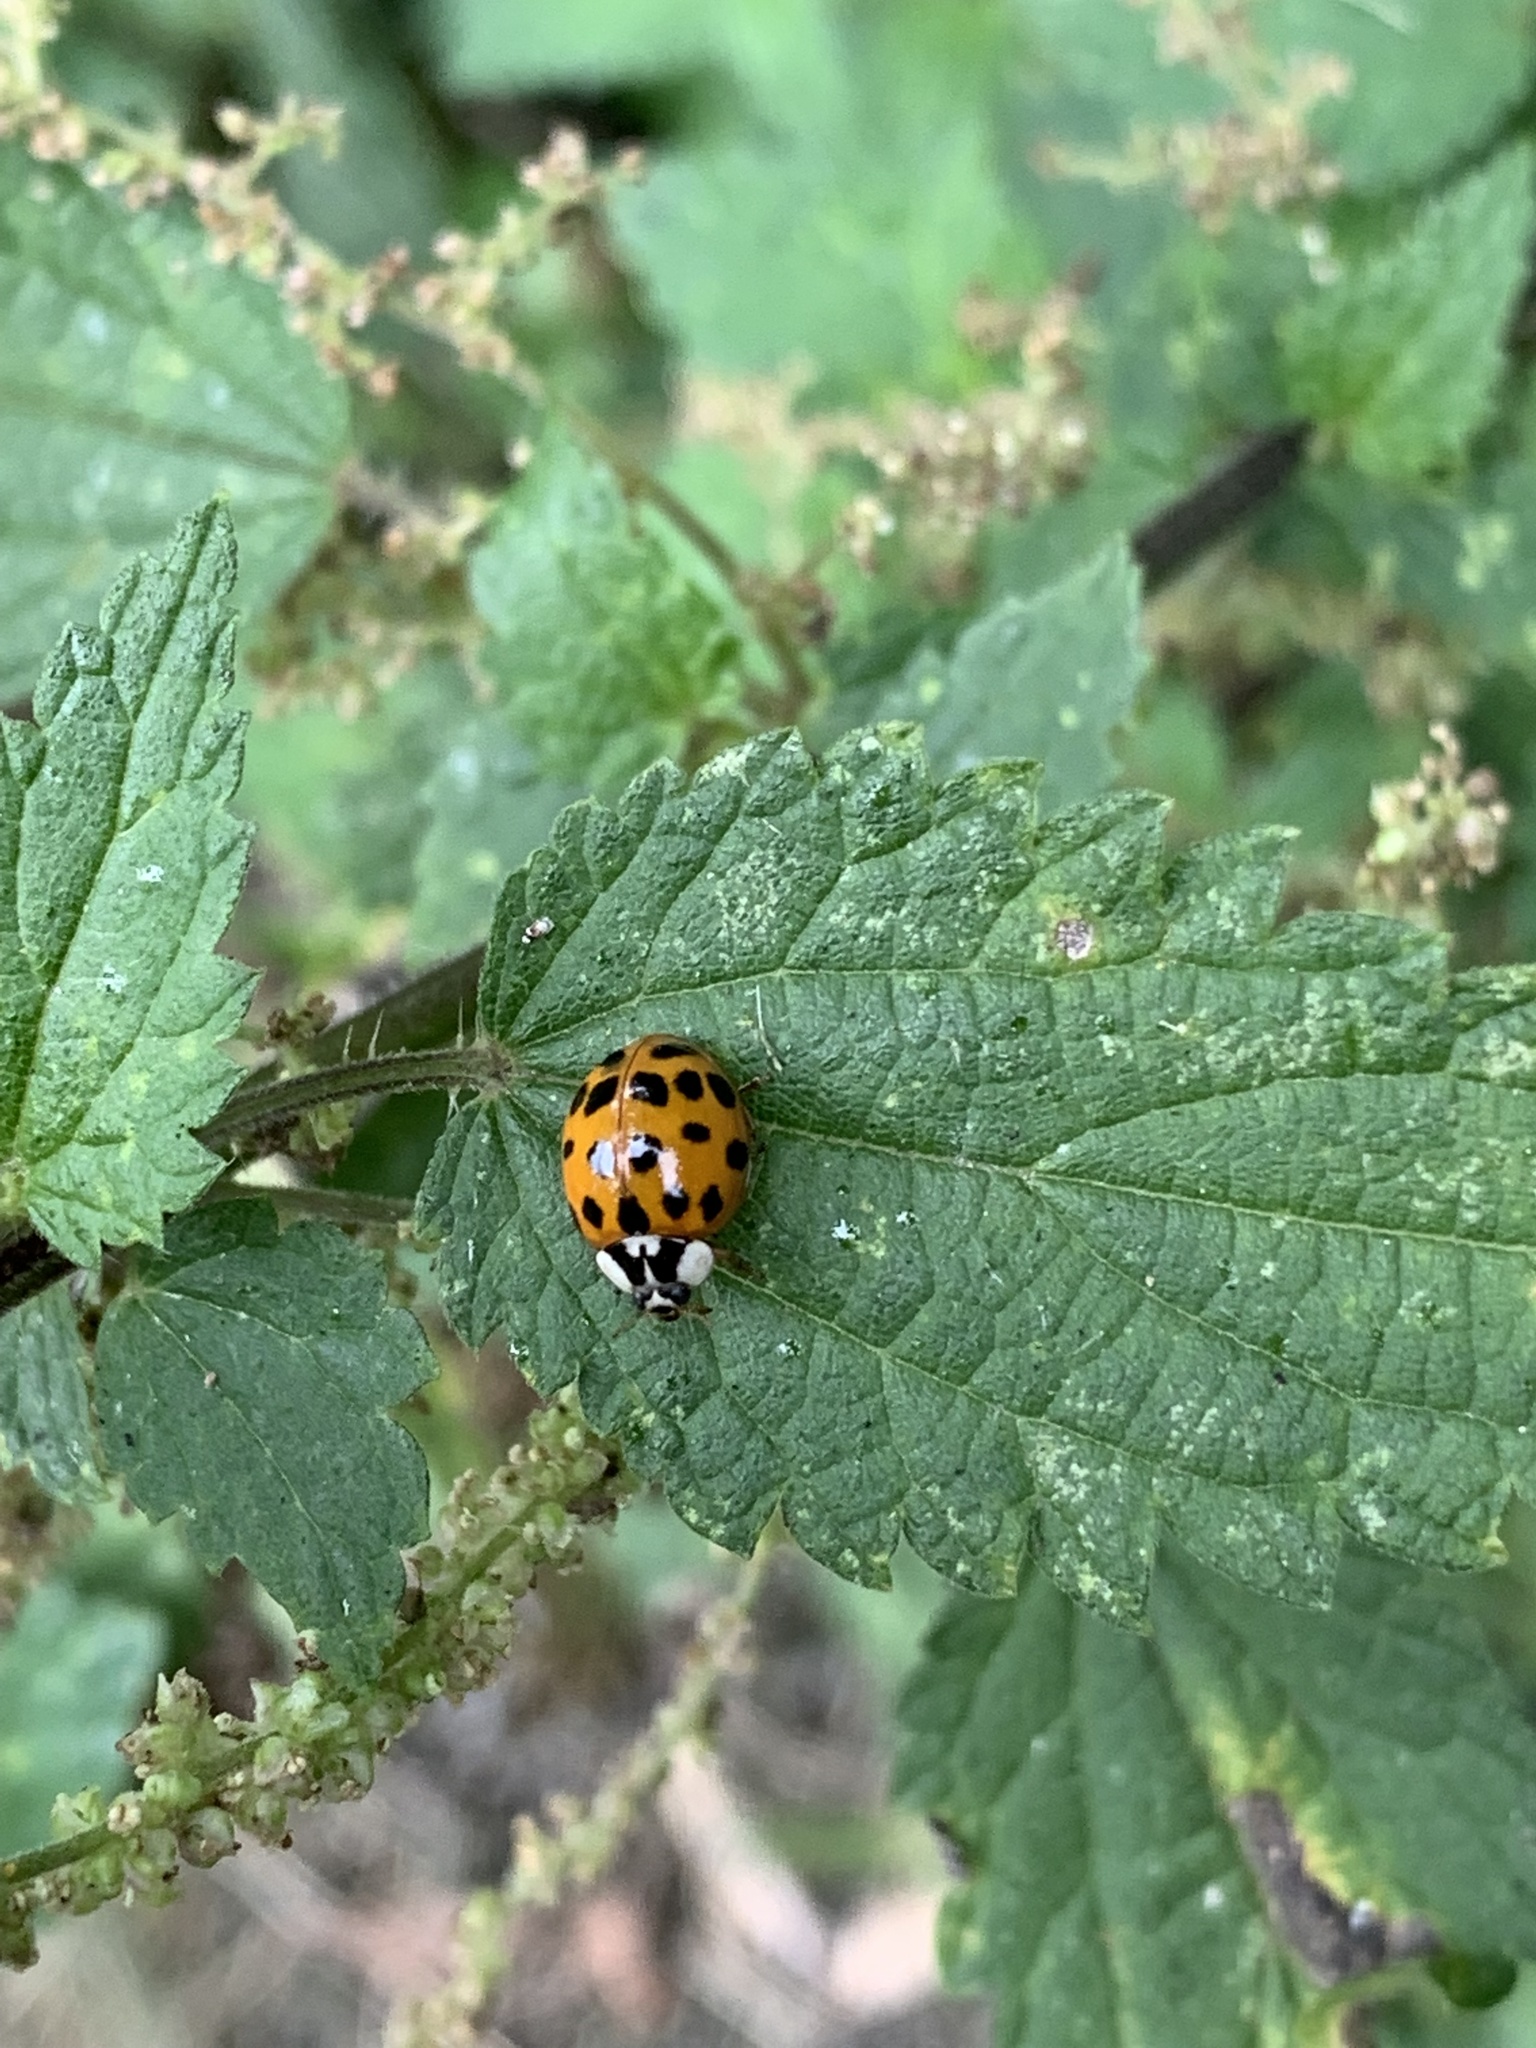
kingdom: Animalia
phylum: Arthropoda
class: Insecta
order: Coleoptera
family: Coccinellidae
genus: Harmonia
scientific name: Harmonia axyridis
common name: Harlequin ladybird
